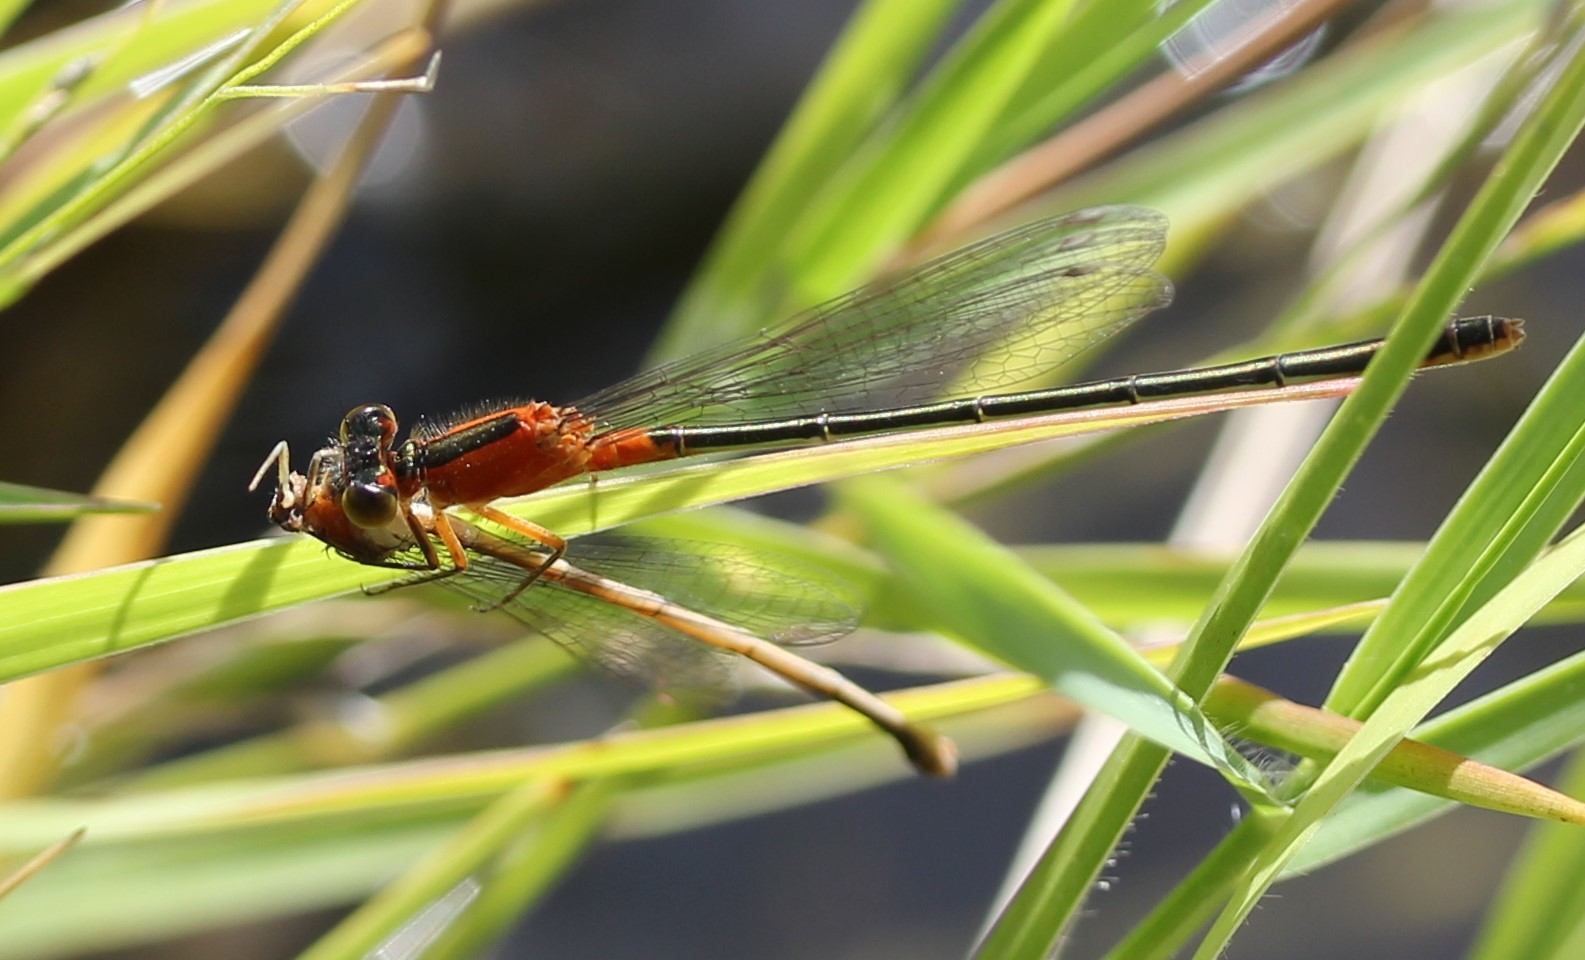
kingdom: Animalia
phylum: Arthropoda
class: Insecta
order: Odonata
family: Coenagrionidae
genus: Ischnura
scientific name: Ischnura ramburii
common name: Rambur's forktail
